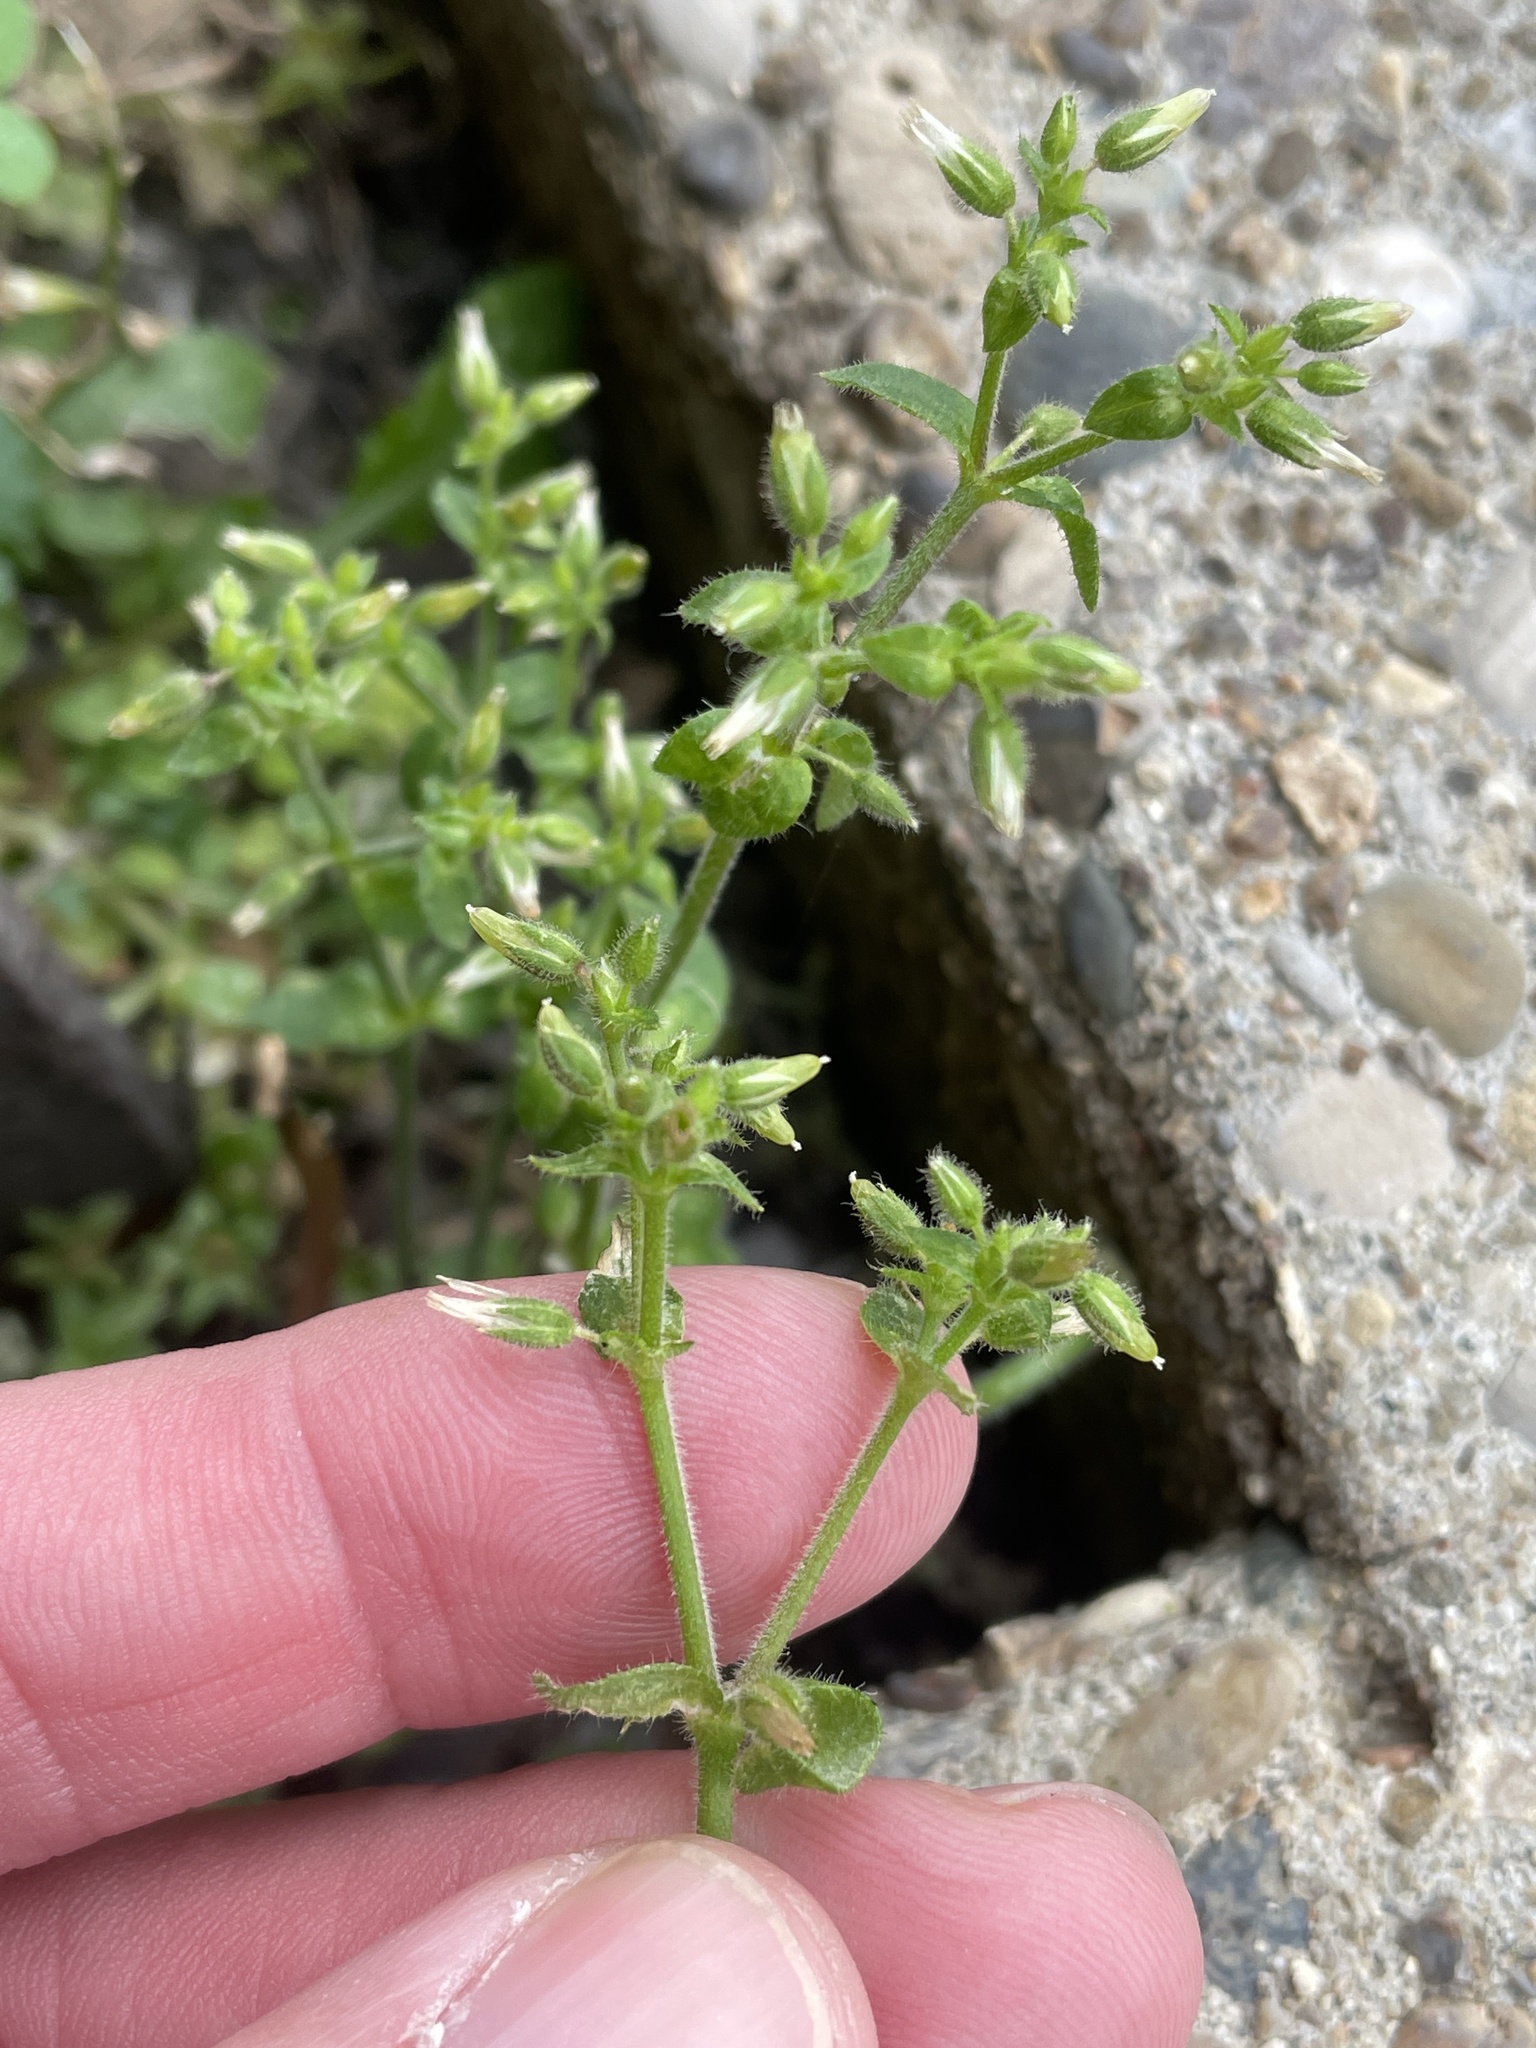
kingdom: Plantae
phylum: Tracheophyta
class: Magnoliopsida
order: Caryophyllales
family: Caryophyllaceae
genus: Cerastium
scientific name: Cerastium glomeratum
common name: Sticky chickweed
